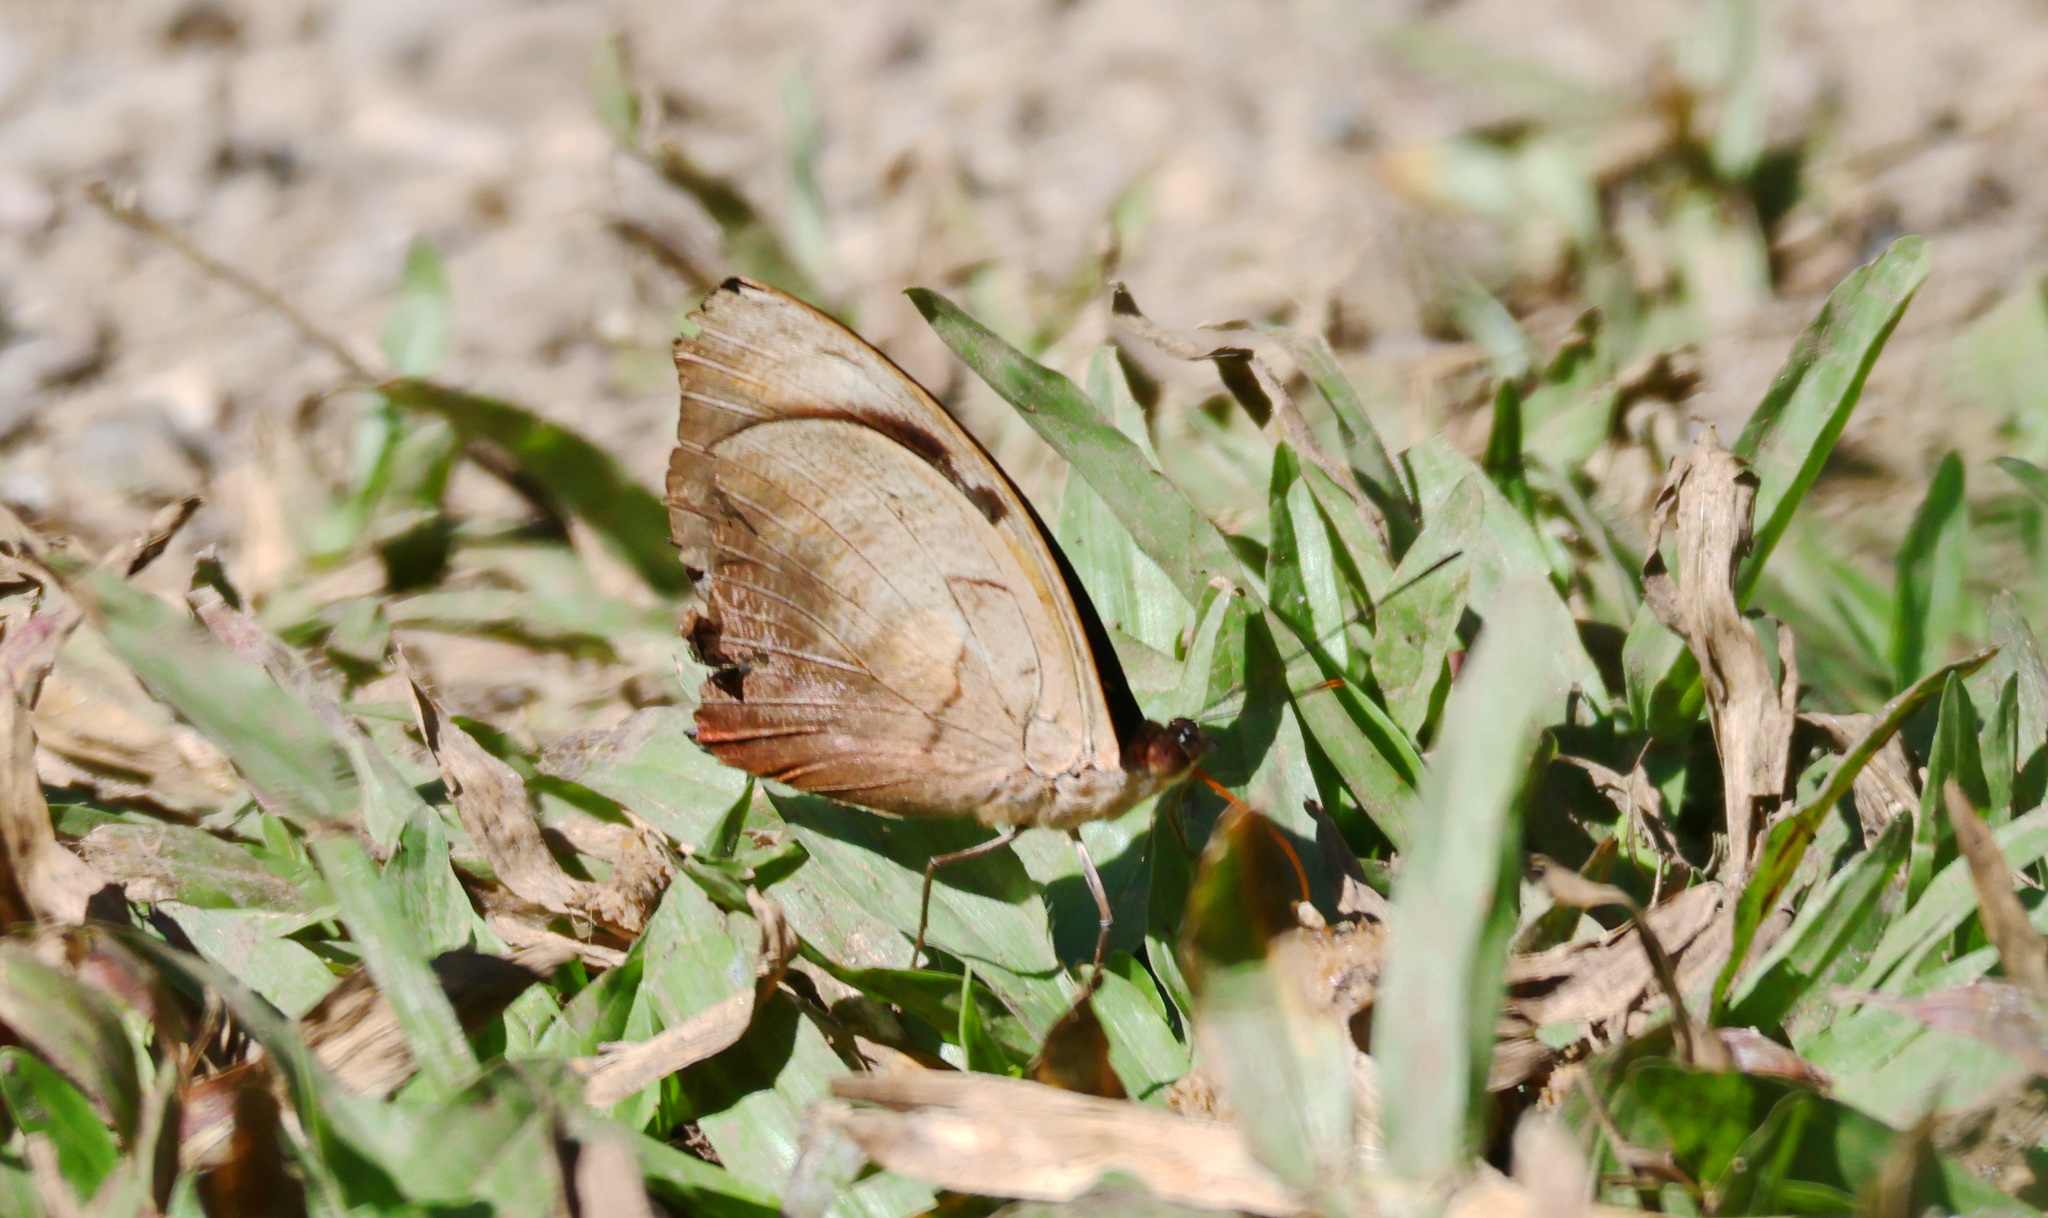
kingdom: Animalia
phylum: Arthropoda
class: Insecta
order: Lepidoptera
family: Nymphalidae
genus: Catonephele
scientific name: Catonephele numilia
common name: Blue-frosted banner
